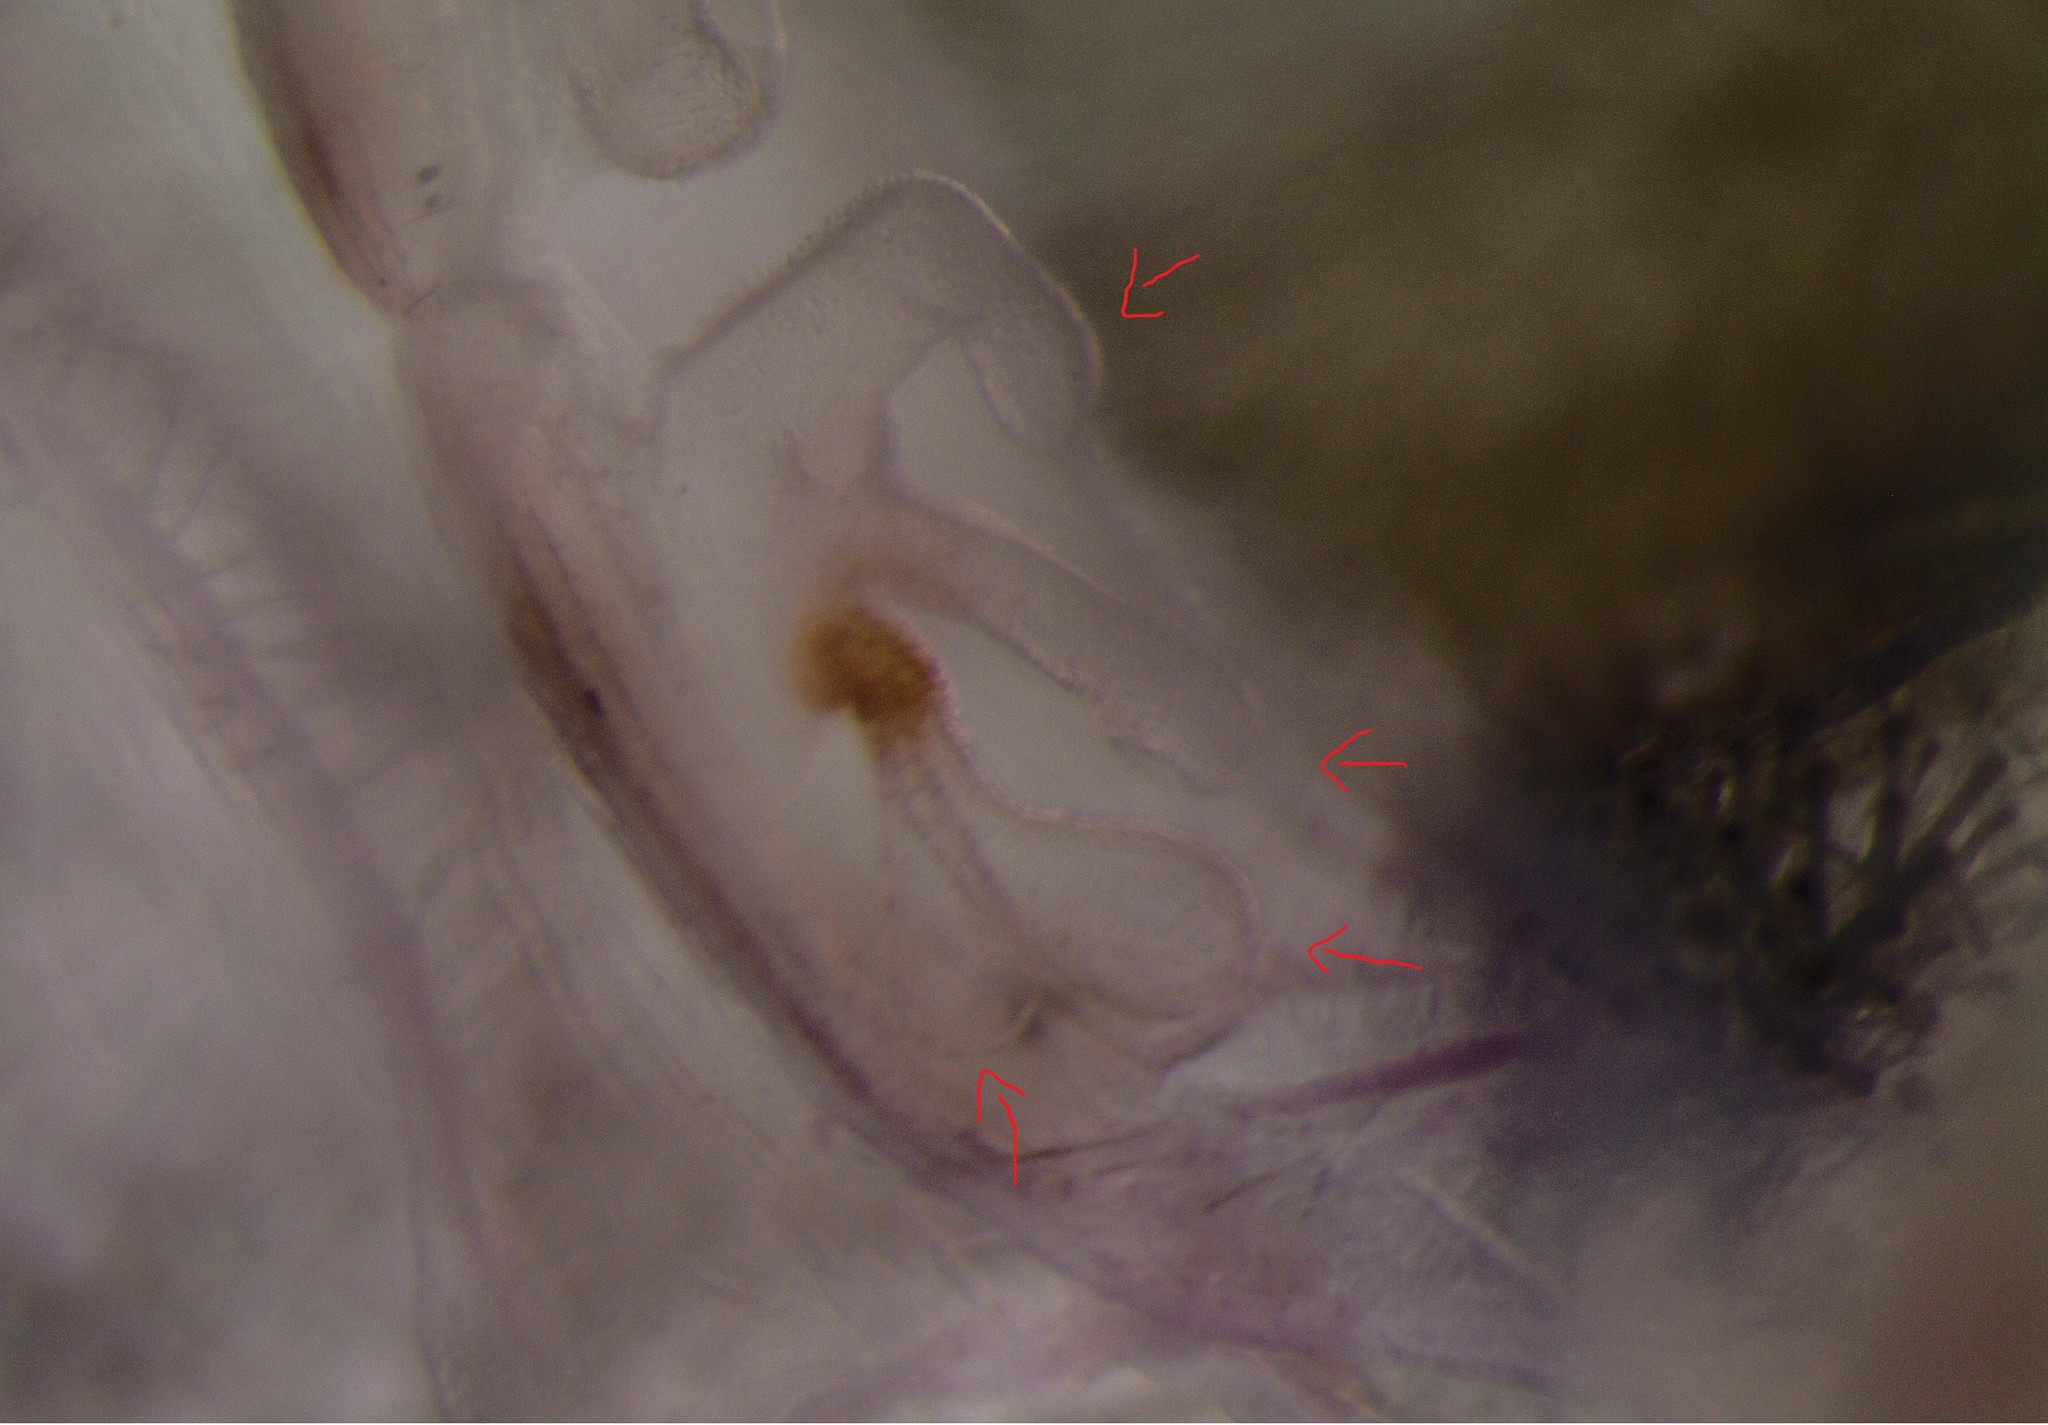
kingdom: Animalia
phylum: Arthropoda
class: Arachnida
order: Araneae
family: Porrhothelidae
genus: Porrhothele
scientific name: Porrhothele quadrigyna
